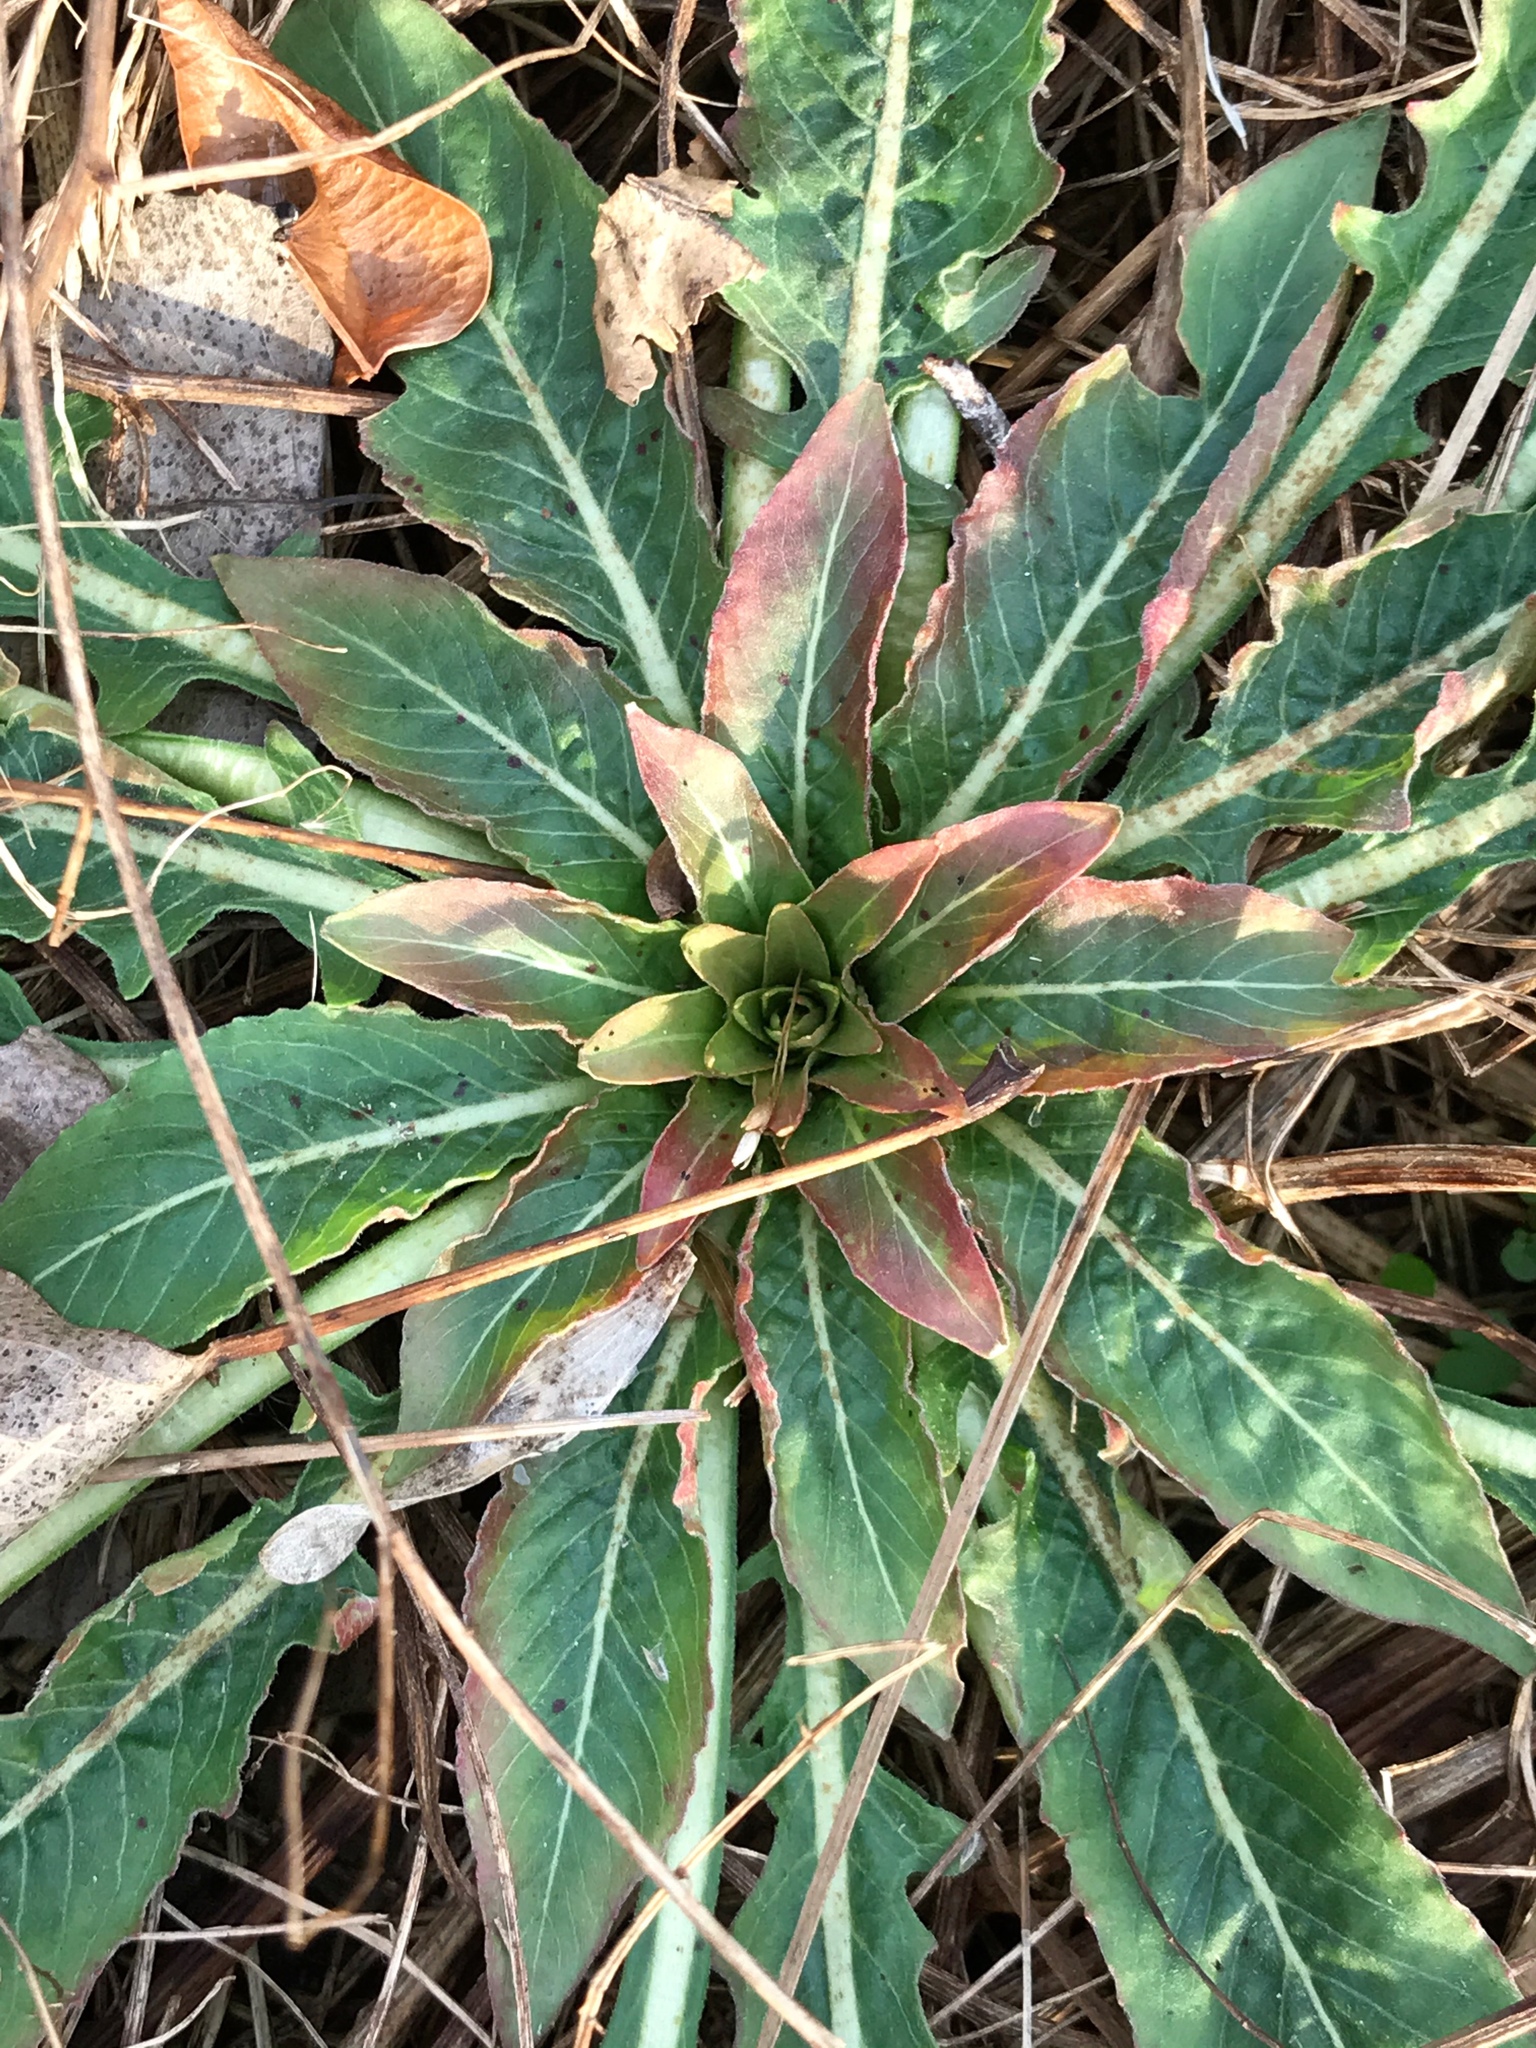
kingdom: Plantae
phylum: Tracheophyta
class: Magnoliopsida
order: Myrtales
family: Onagraceae
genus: Oenothera
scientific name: Oenothera biennis
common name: Common evening-primrose
